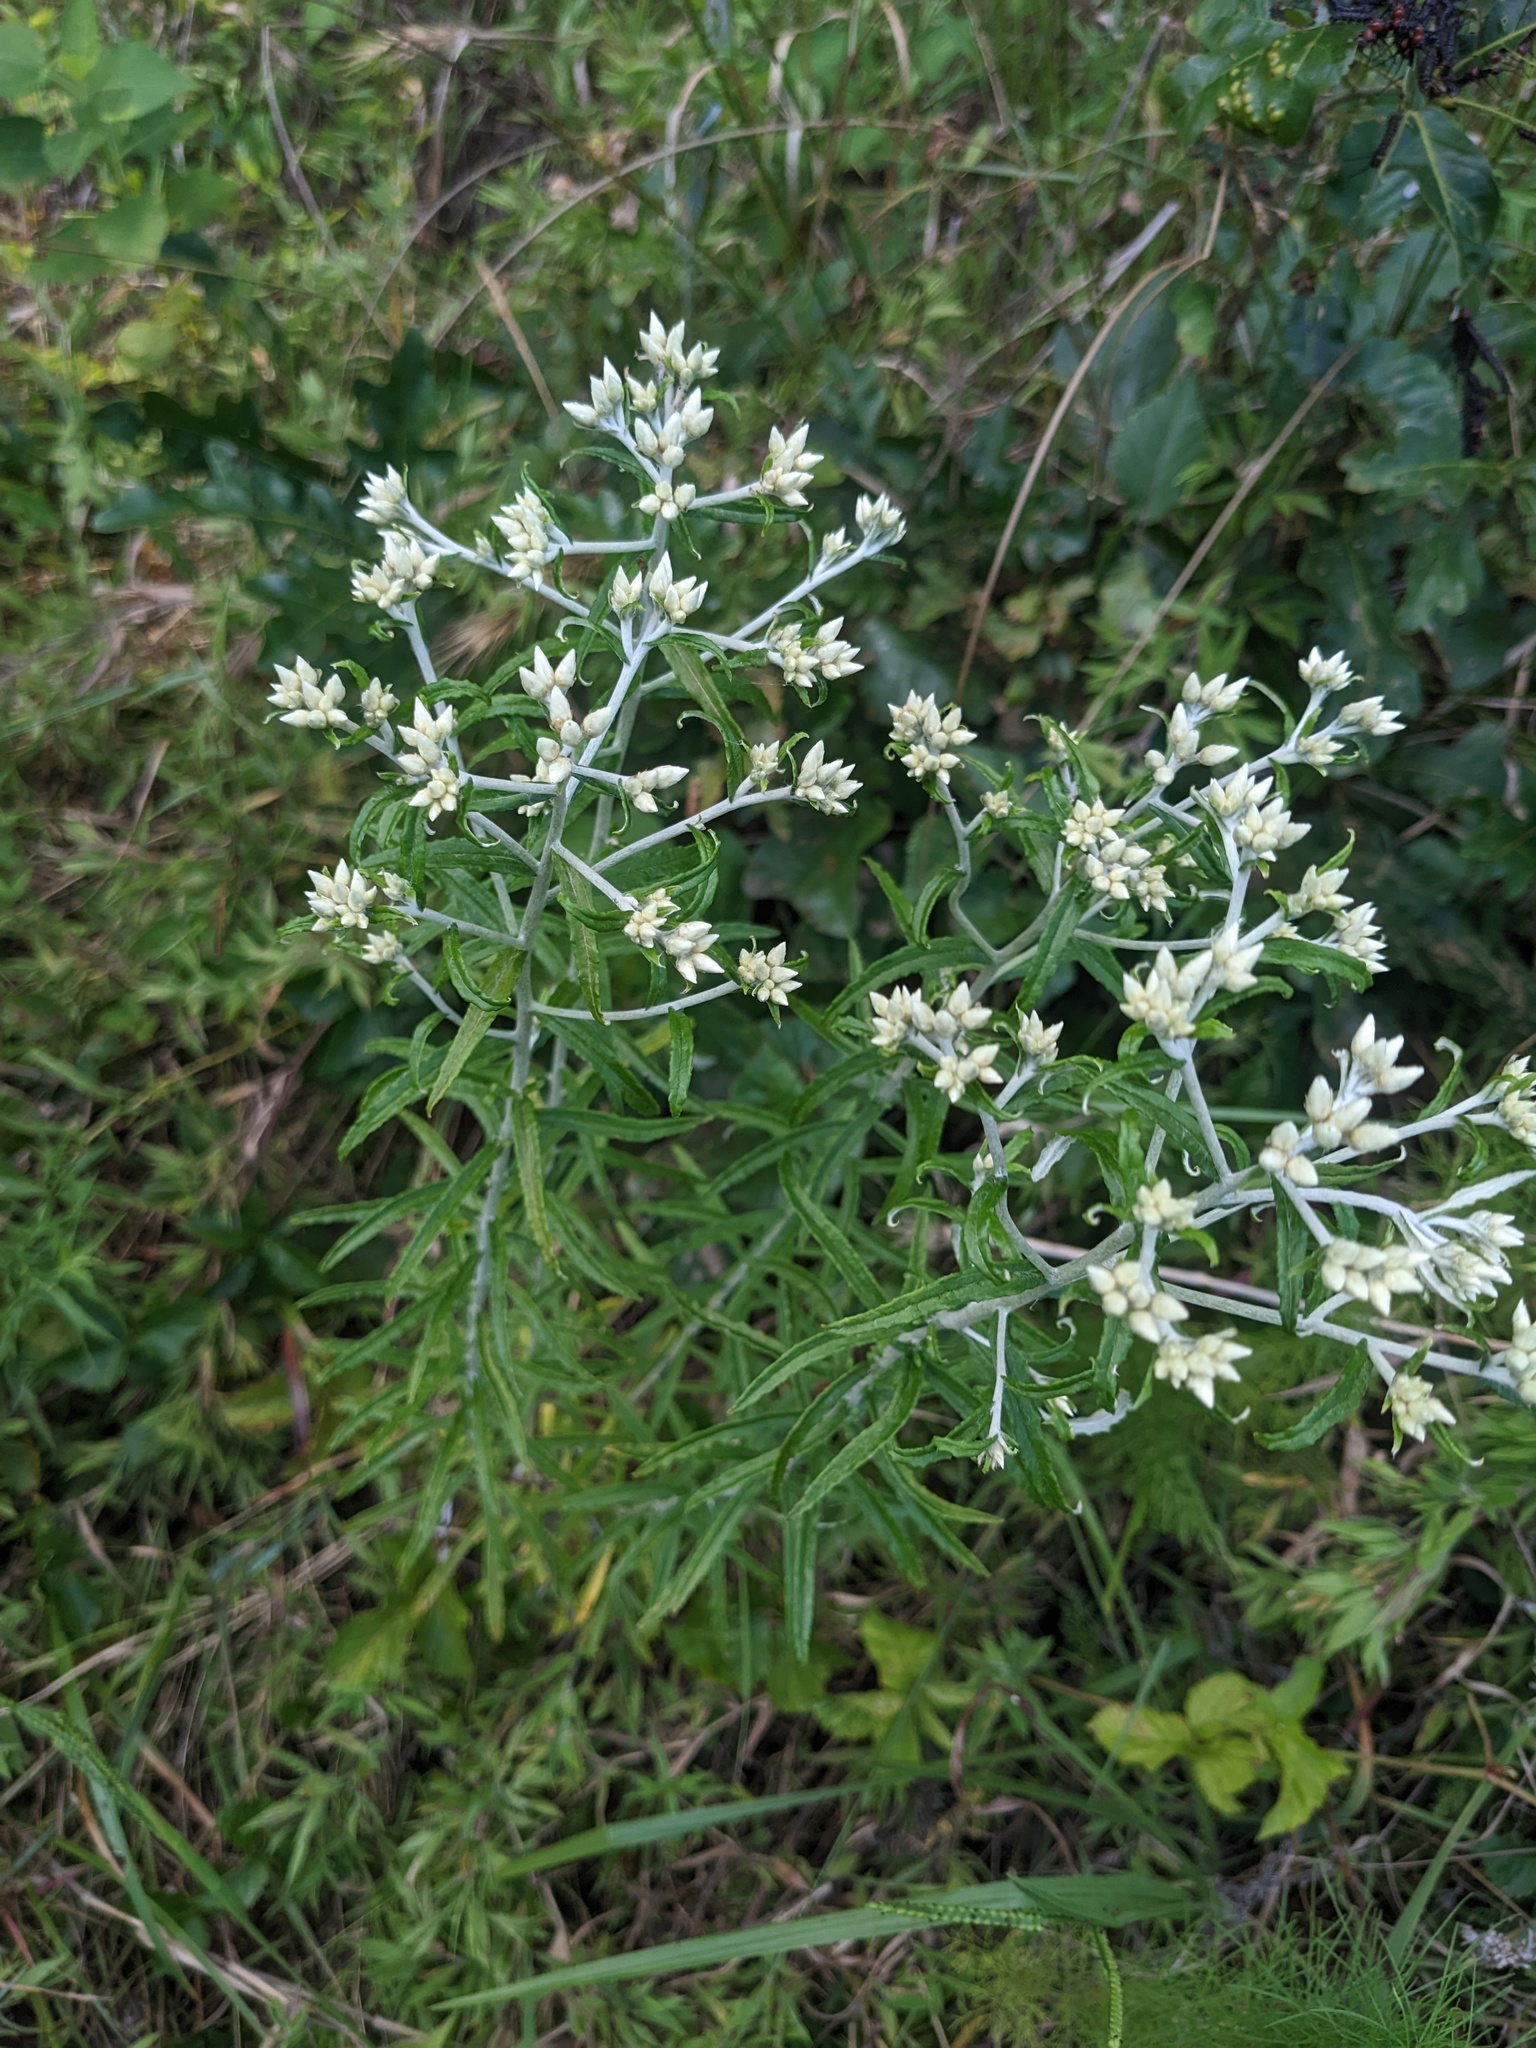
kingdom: Plantae
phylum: Tracheophyta
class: Magnoliopsida
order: Asterales
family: Asteraceae
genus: Pseudognaphalium
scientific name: Pseudognaphalium obtusifolium
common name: Eastern rabbit-tobacco
